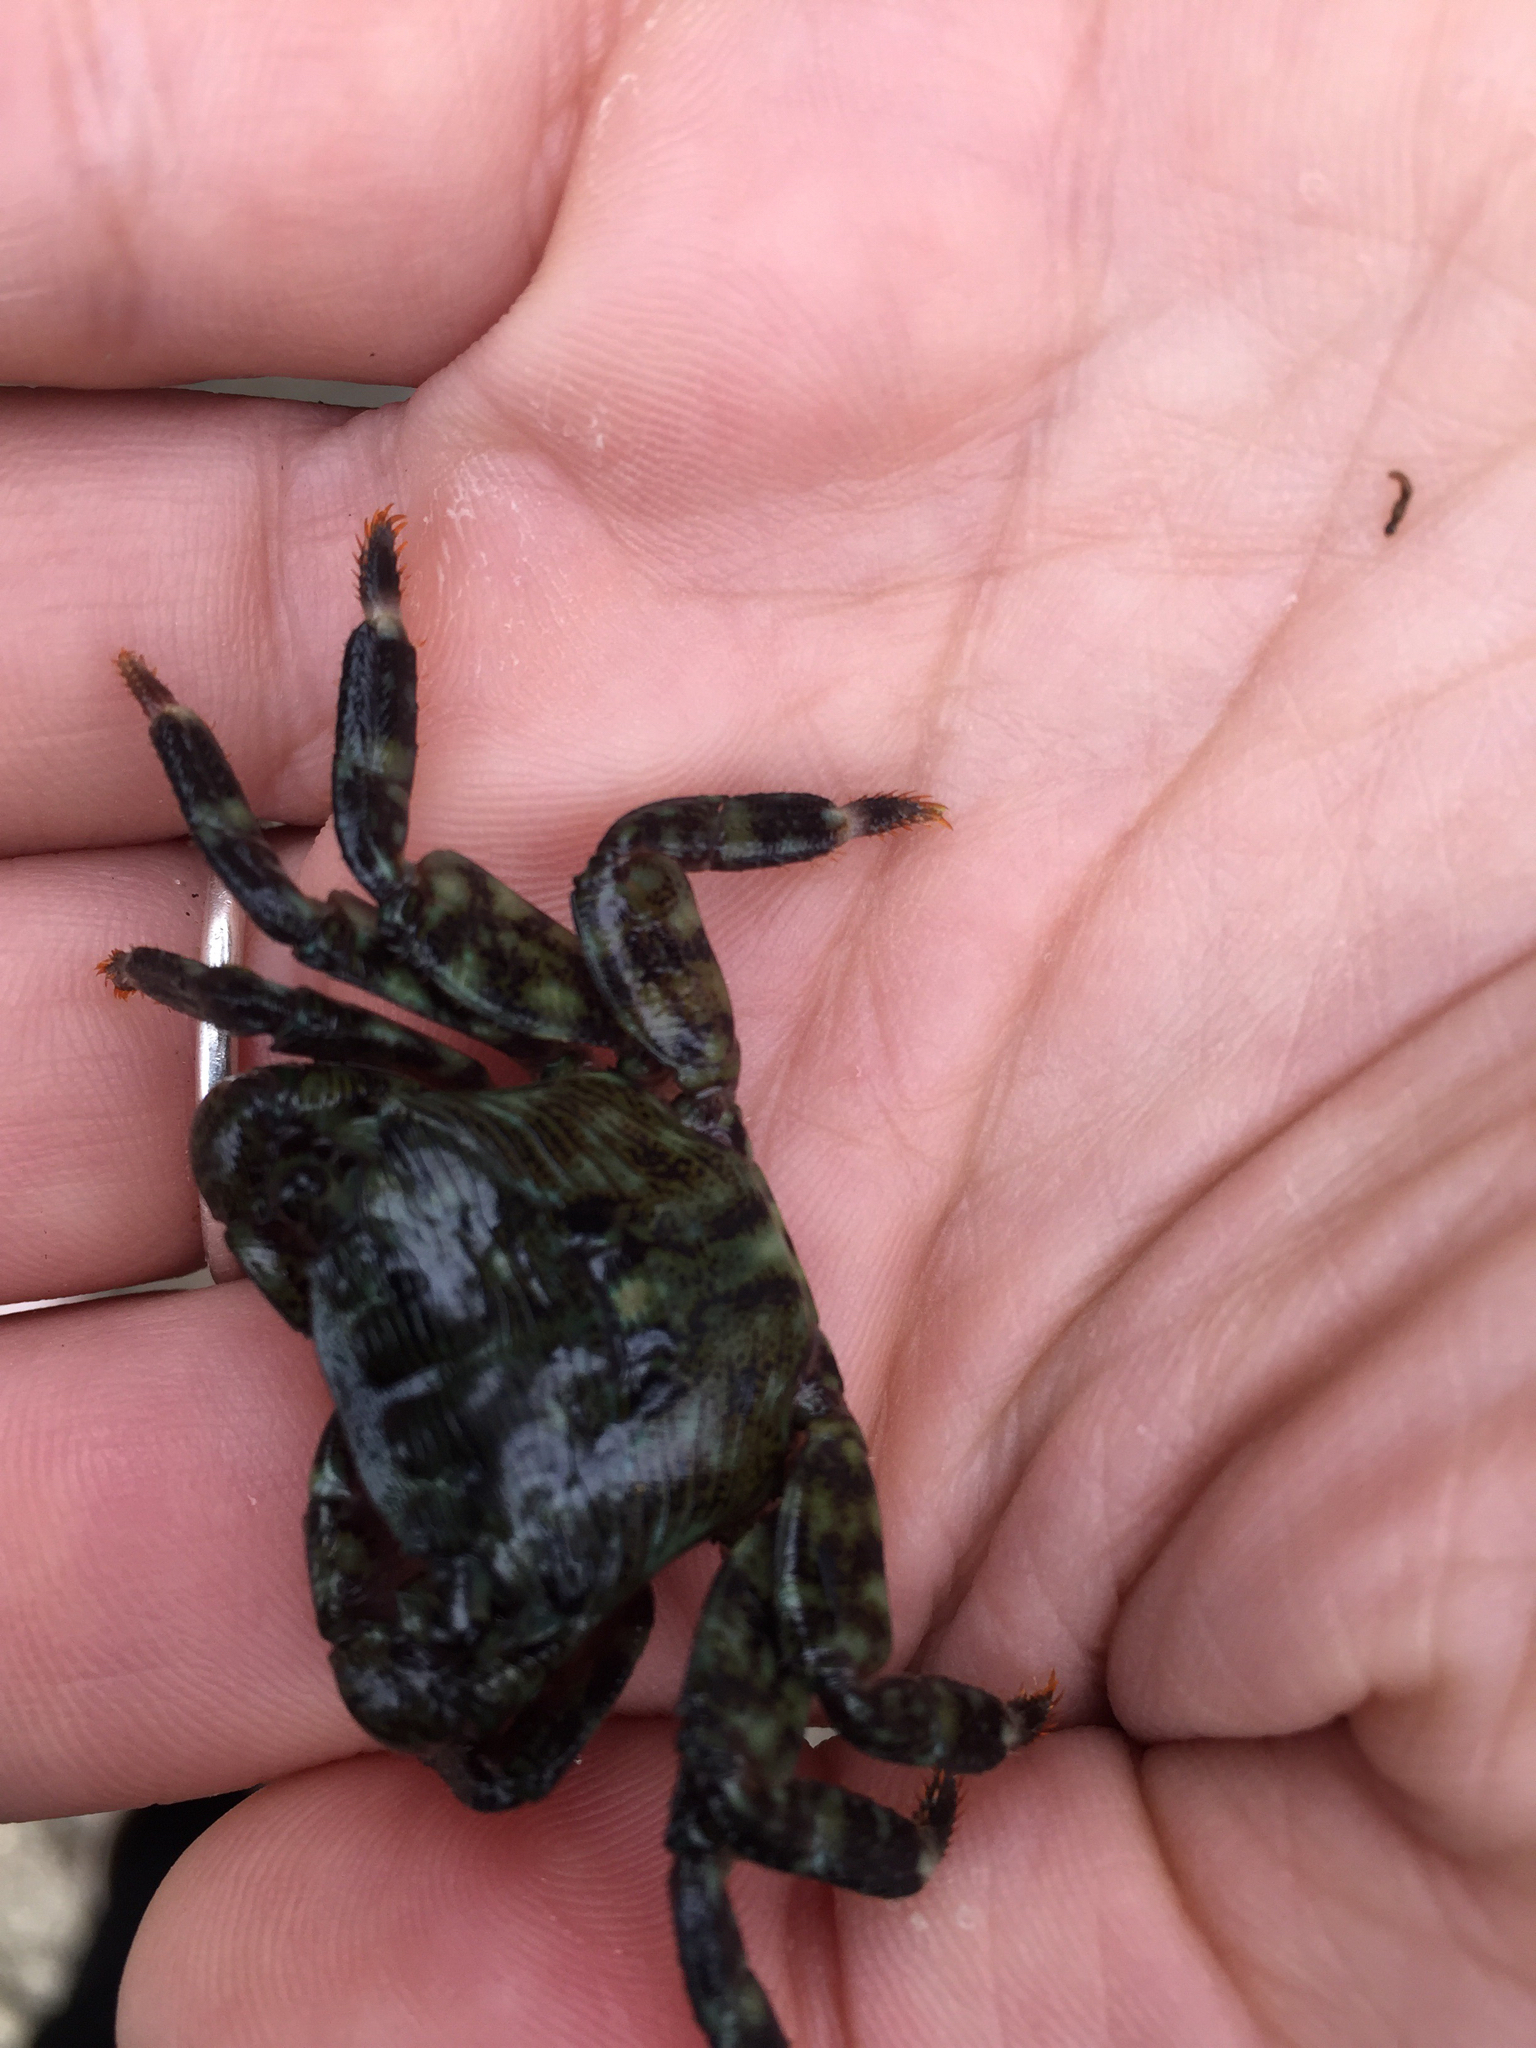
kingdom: Animalia
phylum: Arthropoda
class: Malacostraca
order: Decapoda
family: Grapsidae
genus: Pachygrapsus
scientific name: Pachygrapsus crassipes
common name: Striped shore crab
